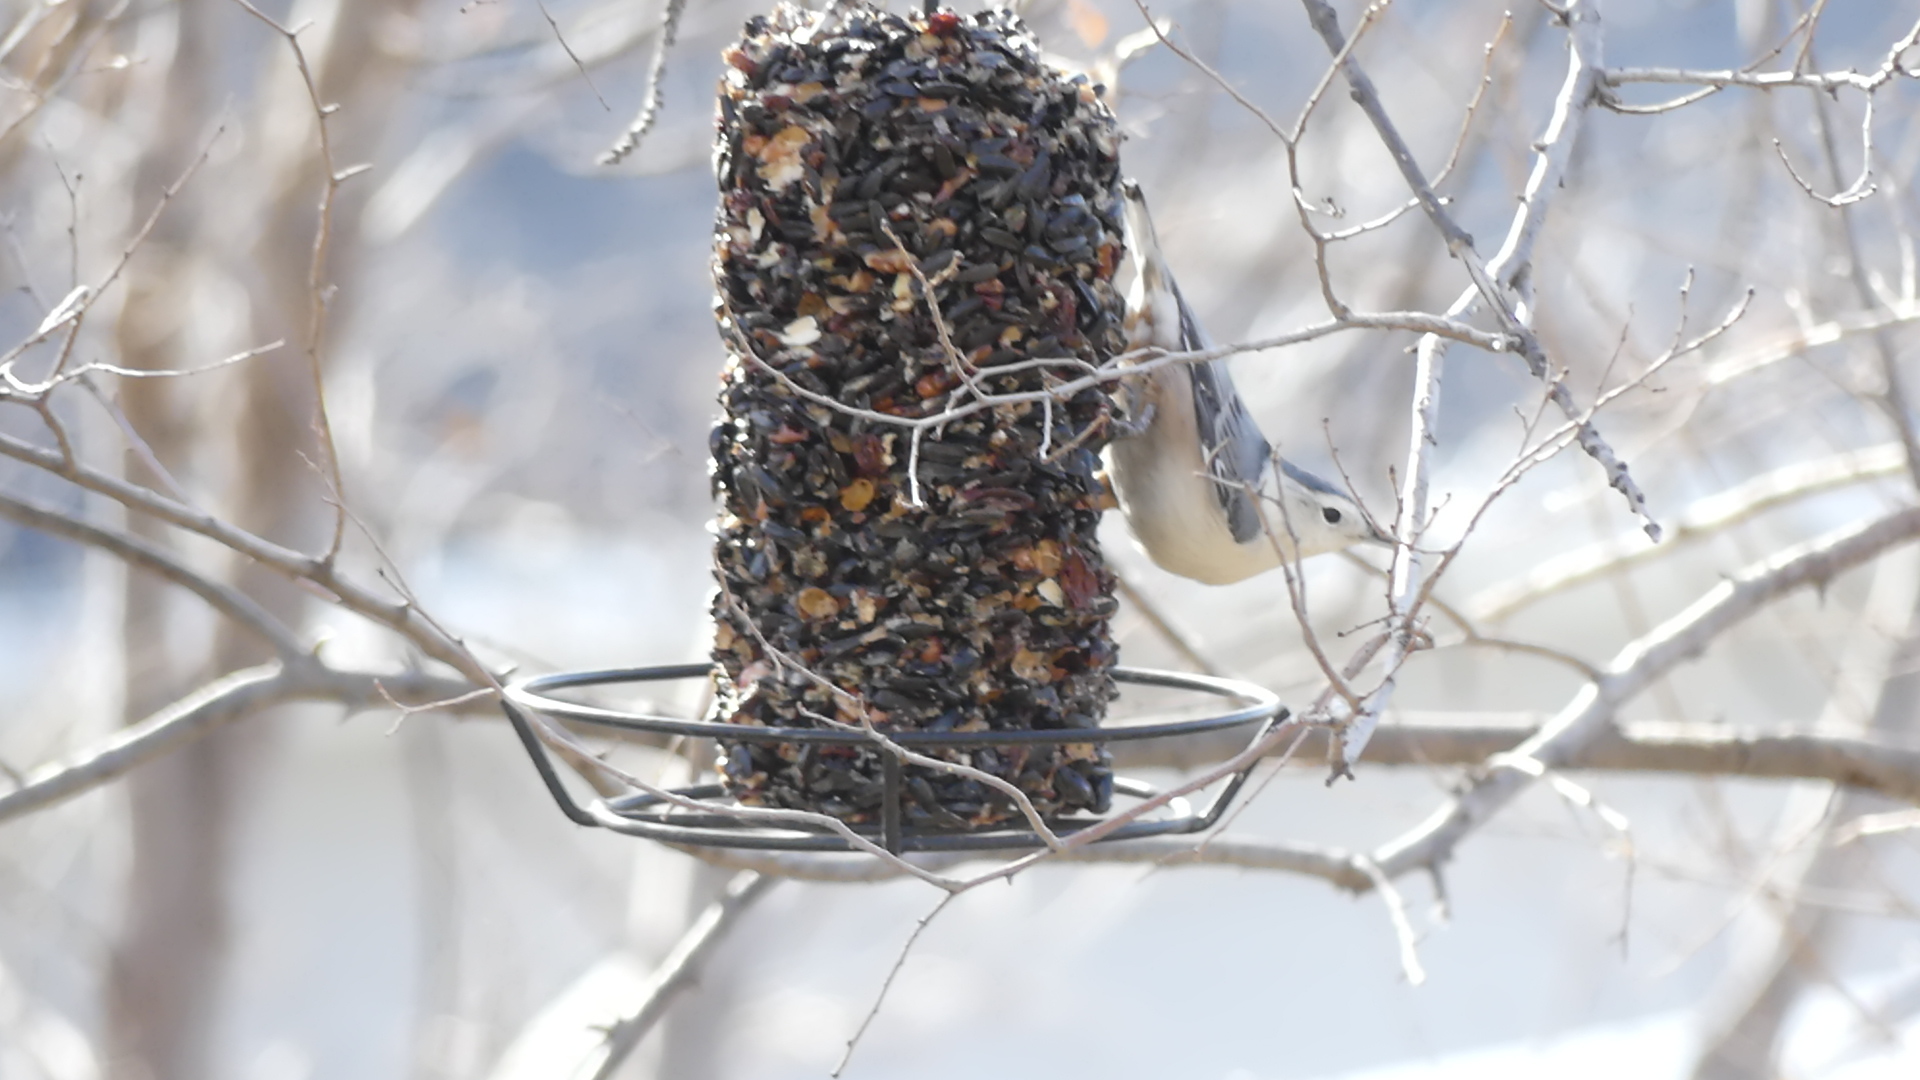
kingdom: Animalia
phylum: Chordata
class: Aves
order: Passeriformes
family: Sittidae
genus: Sitta
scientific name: Sitta carolinensis
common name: White-breasted nuthatch
